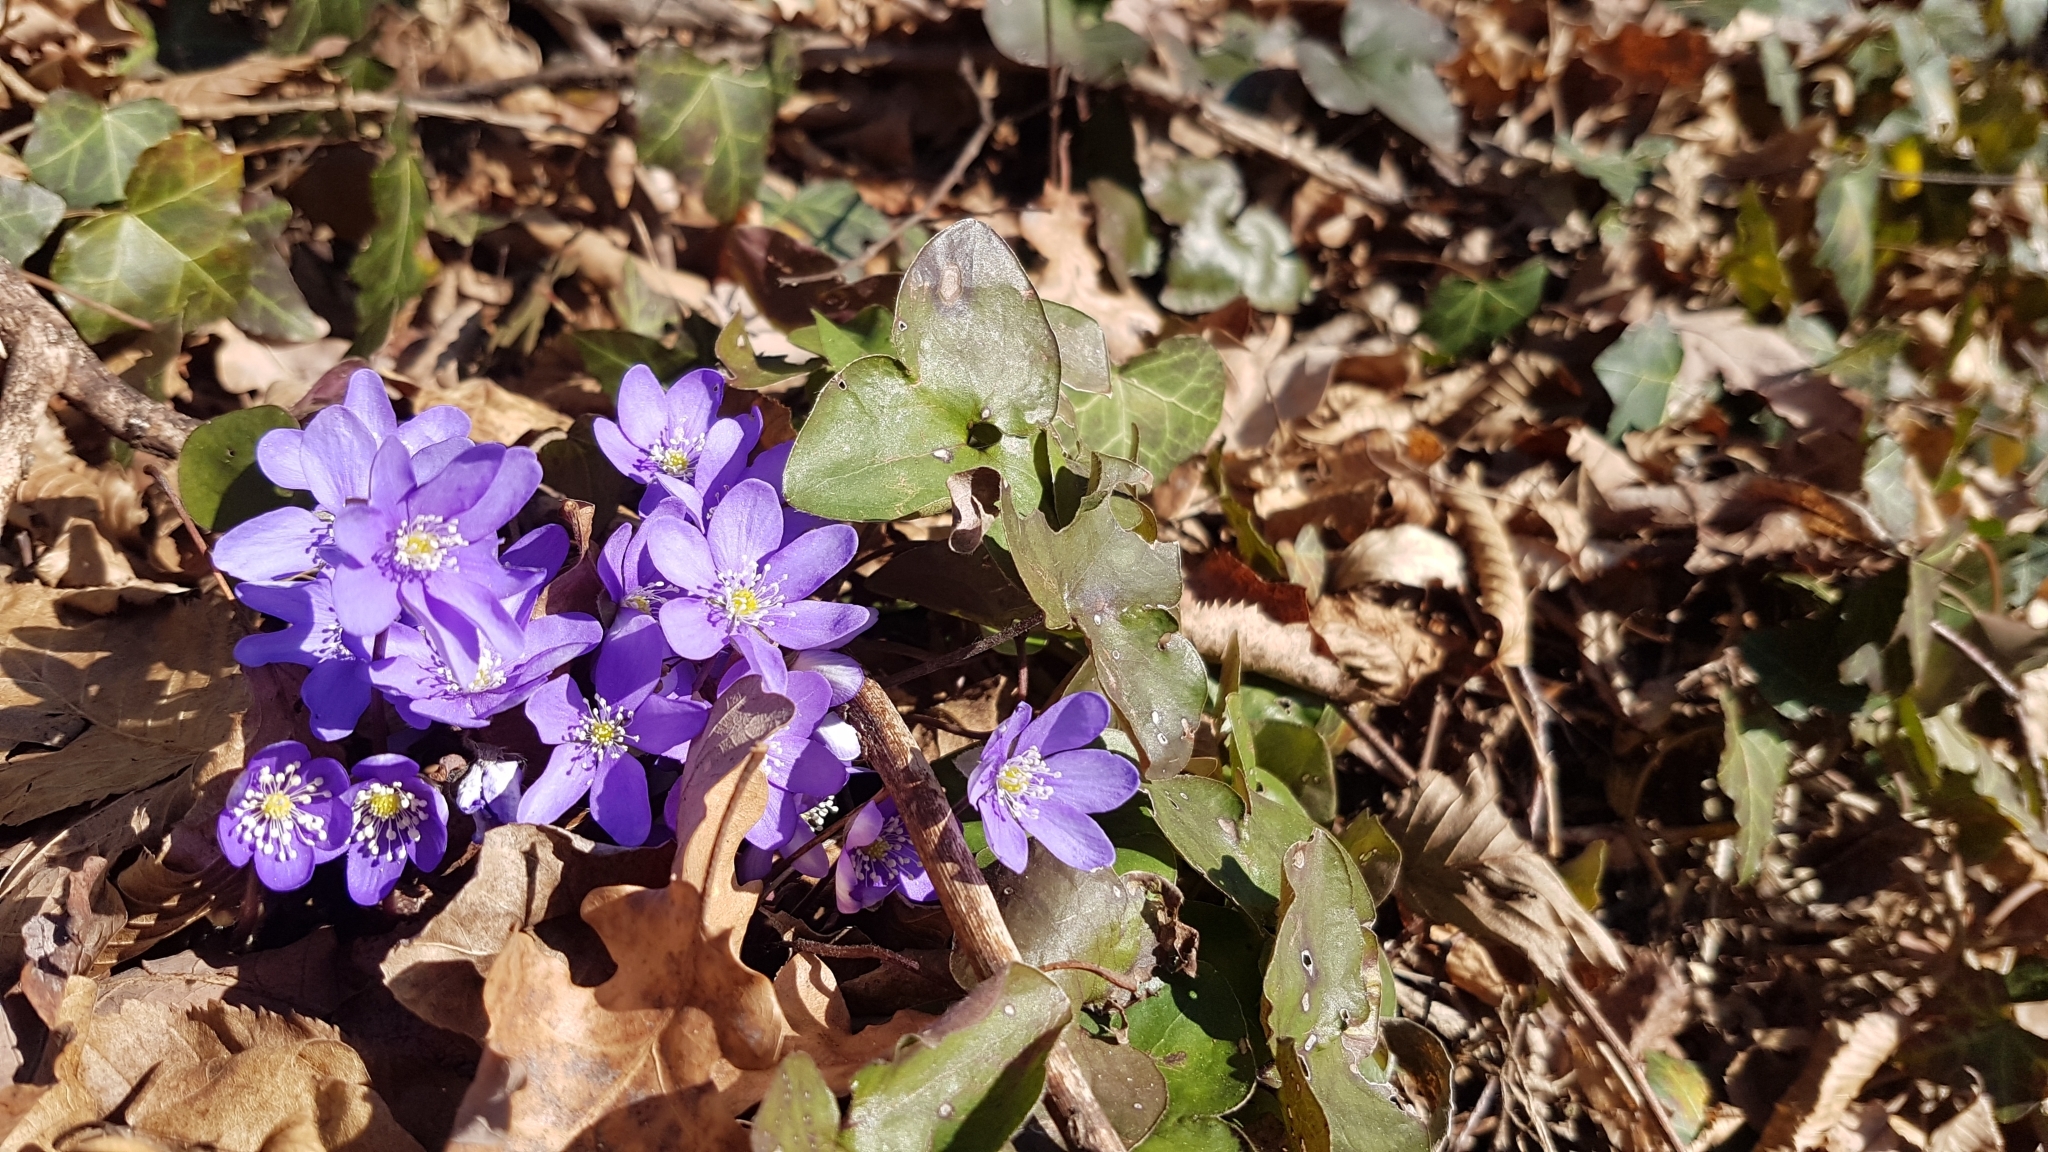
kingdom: Plantae
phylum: Tracheophyta
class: Magnoliopsida
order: Ranunculales
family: Ranunculaceae
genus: Hepatica
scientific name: Hepatica nobilis
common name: Liverleaf
